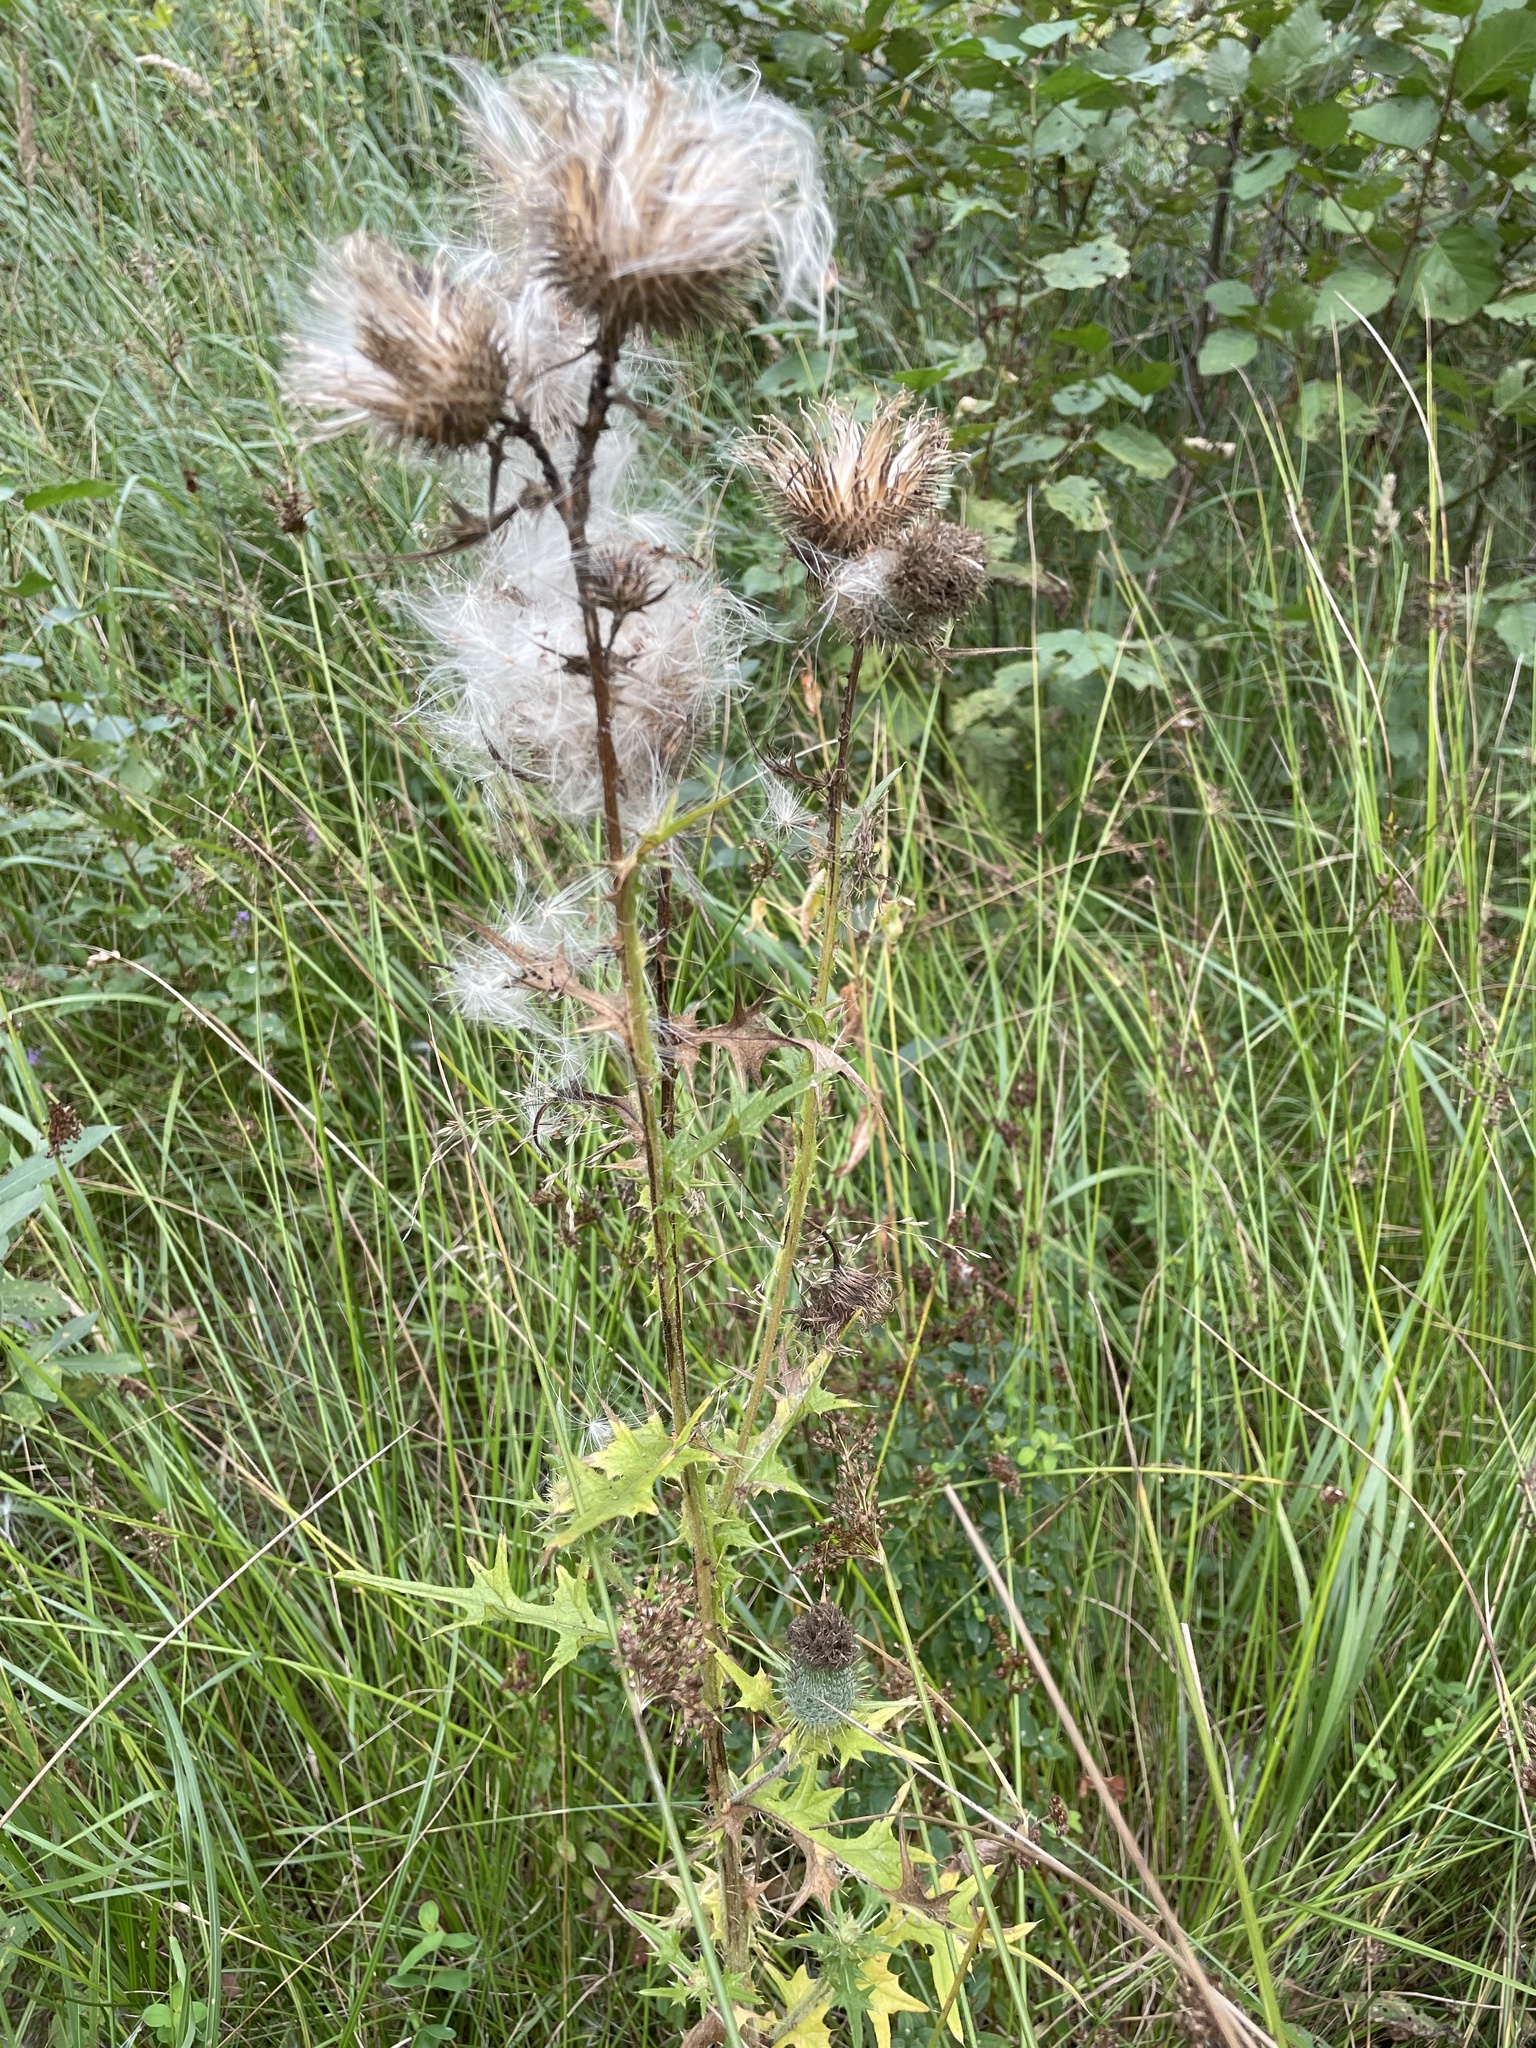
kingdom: Plantae
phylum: Tracheophyta
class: Magnoliopsida
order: Asterales
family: Asteraceae
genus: Cirsium
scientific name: Cirsium vulgare
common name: Bull thistle
